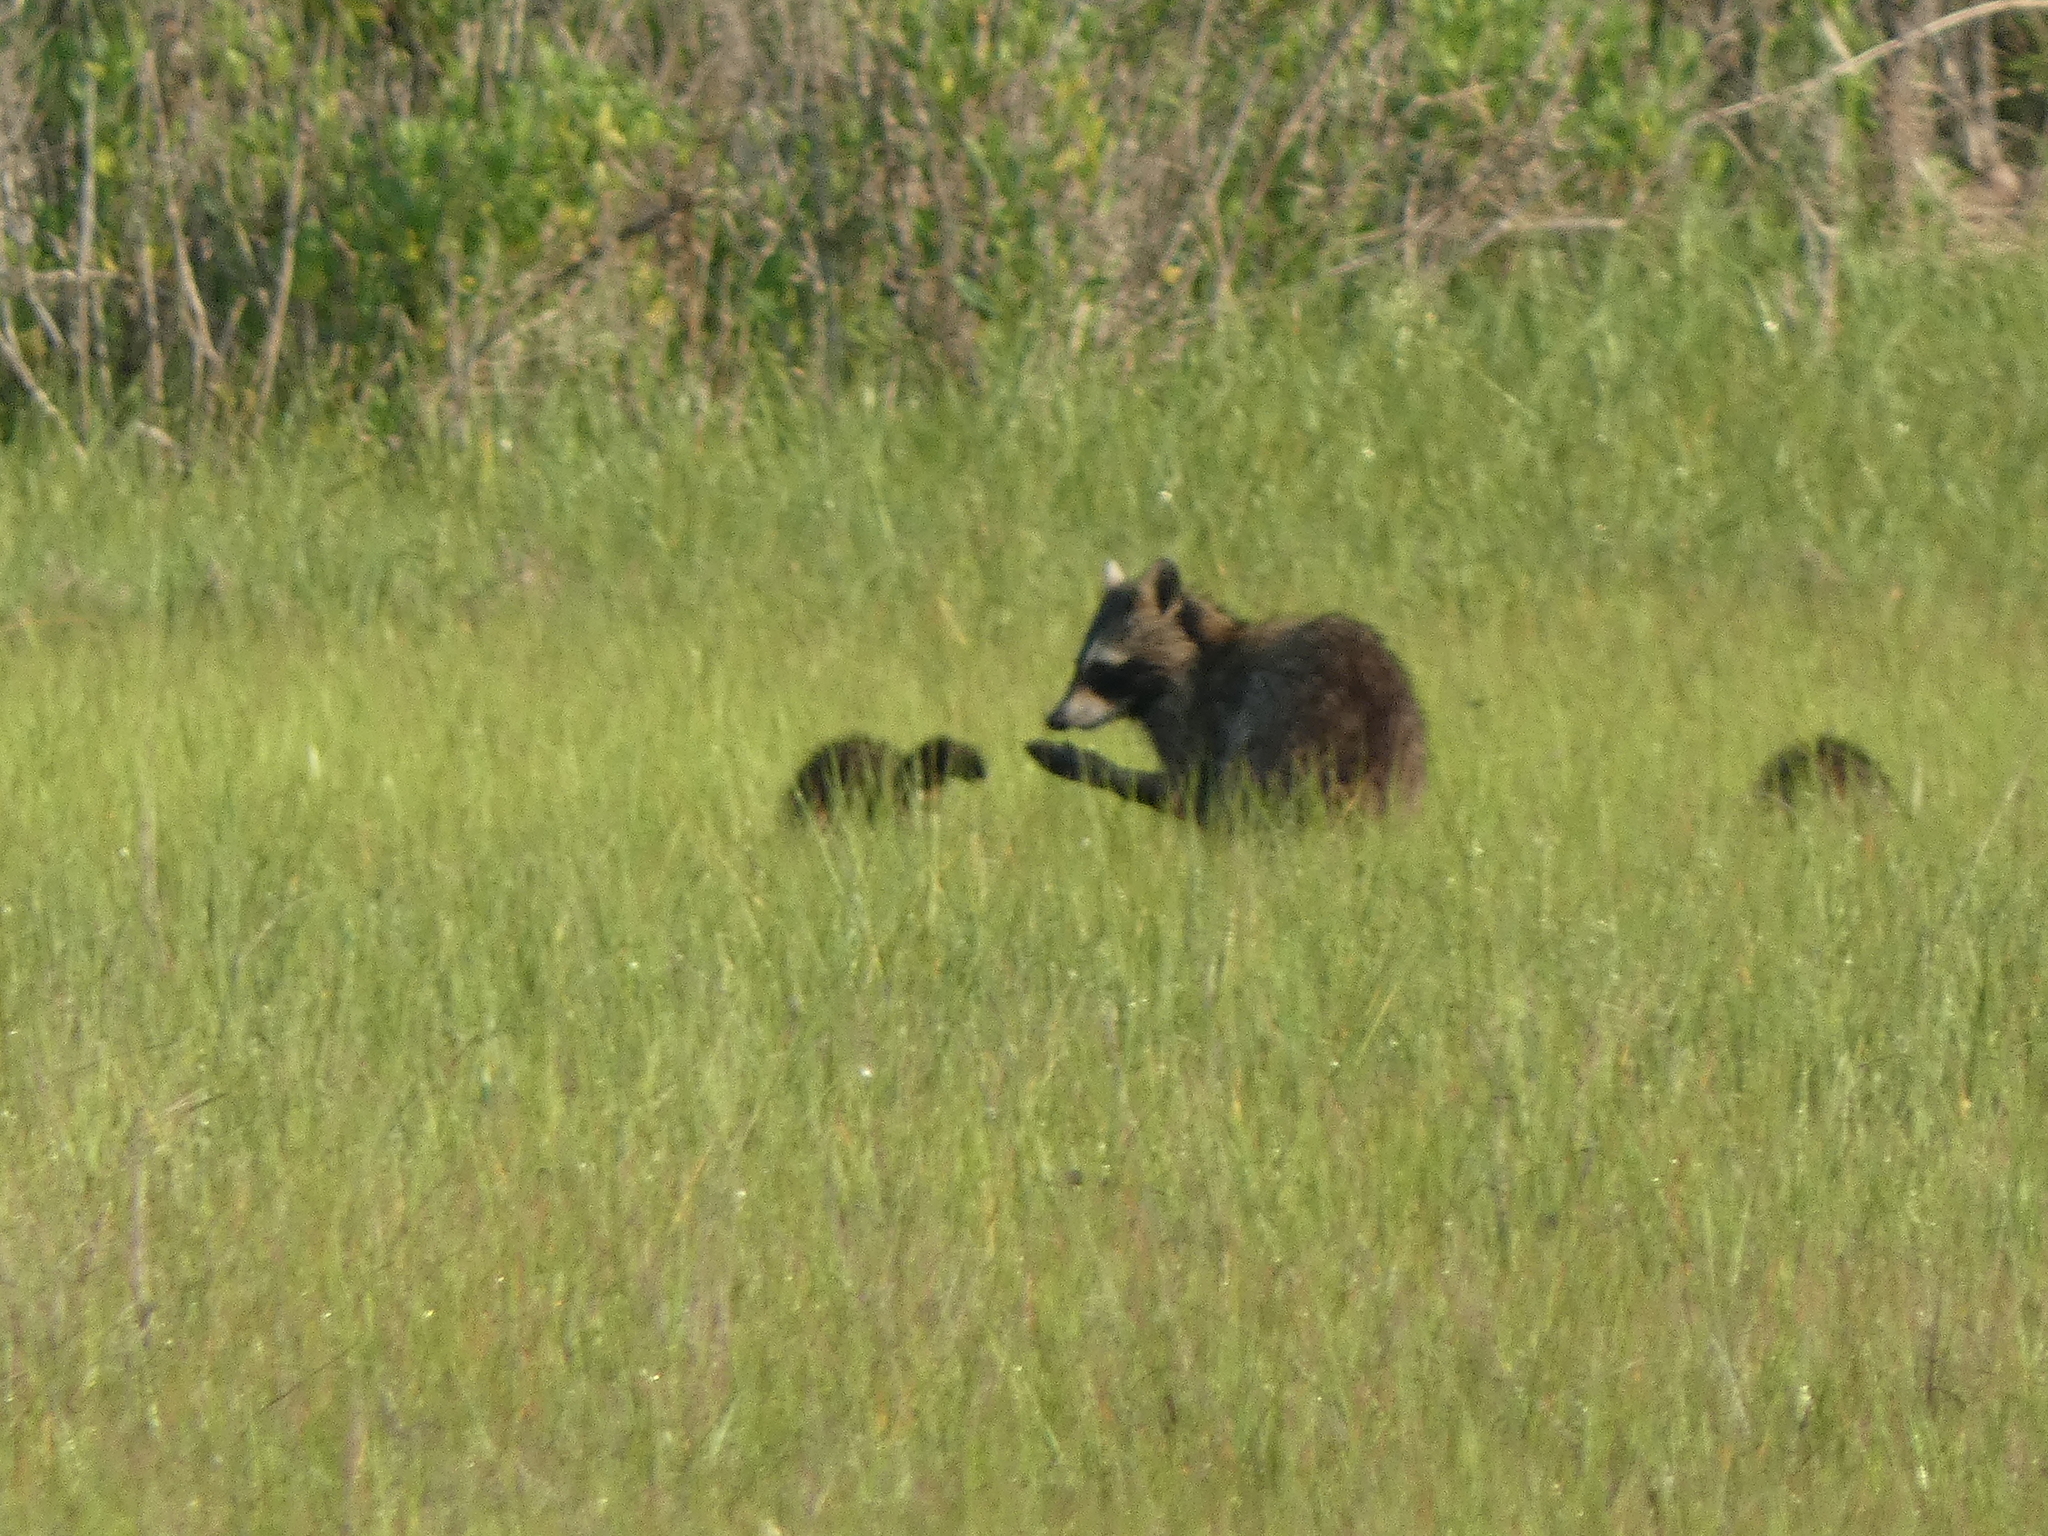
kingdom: Animalia
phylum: Chordata
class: Mammalia
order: Carnivora
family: Procyonidae
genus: Procyon
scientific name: Procyon lotor
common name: Raccoon
